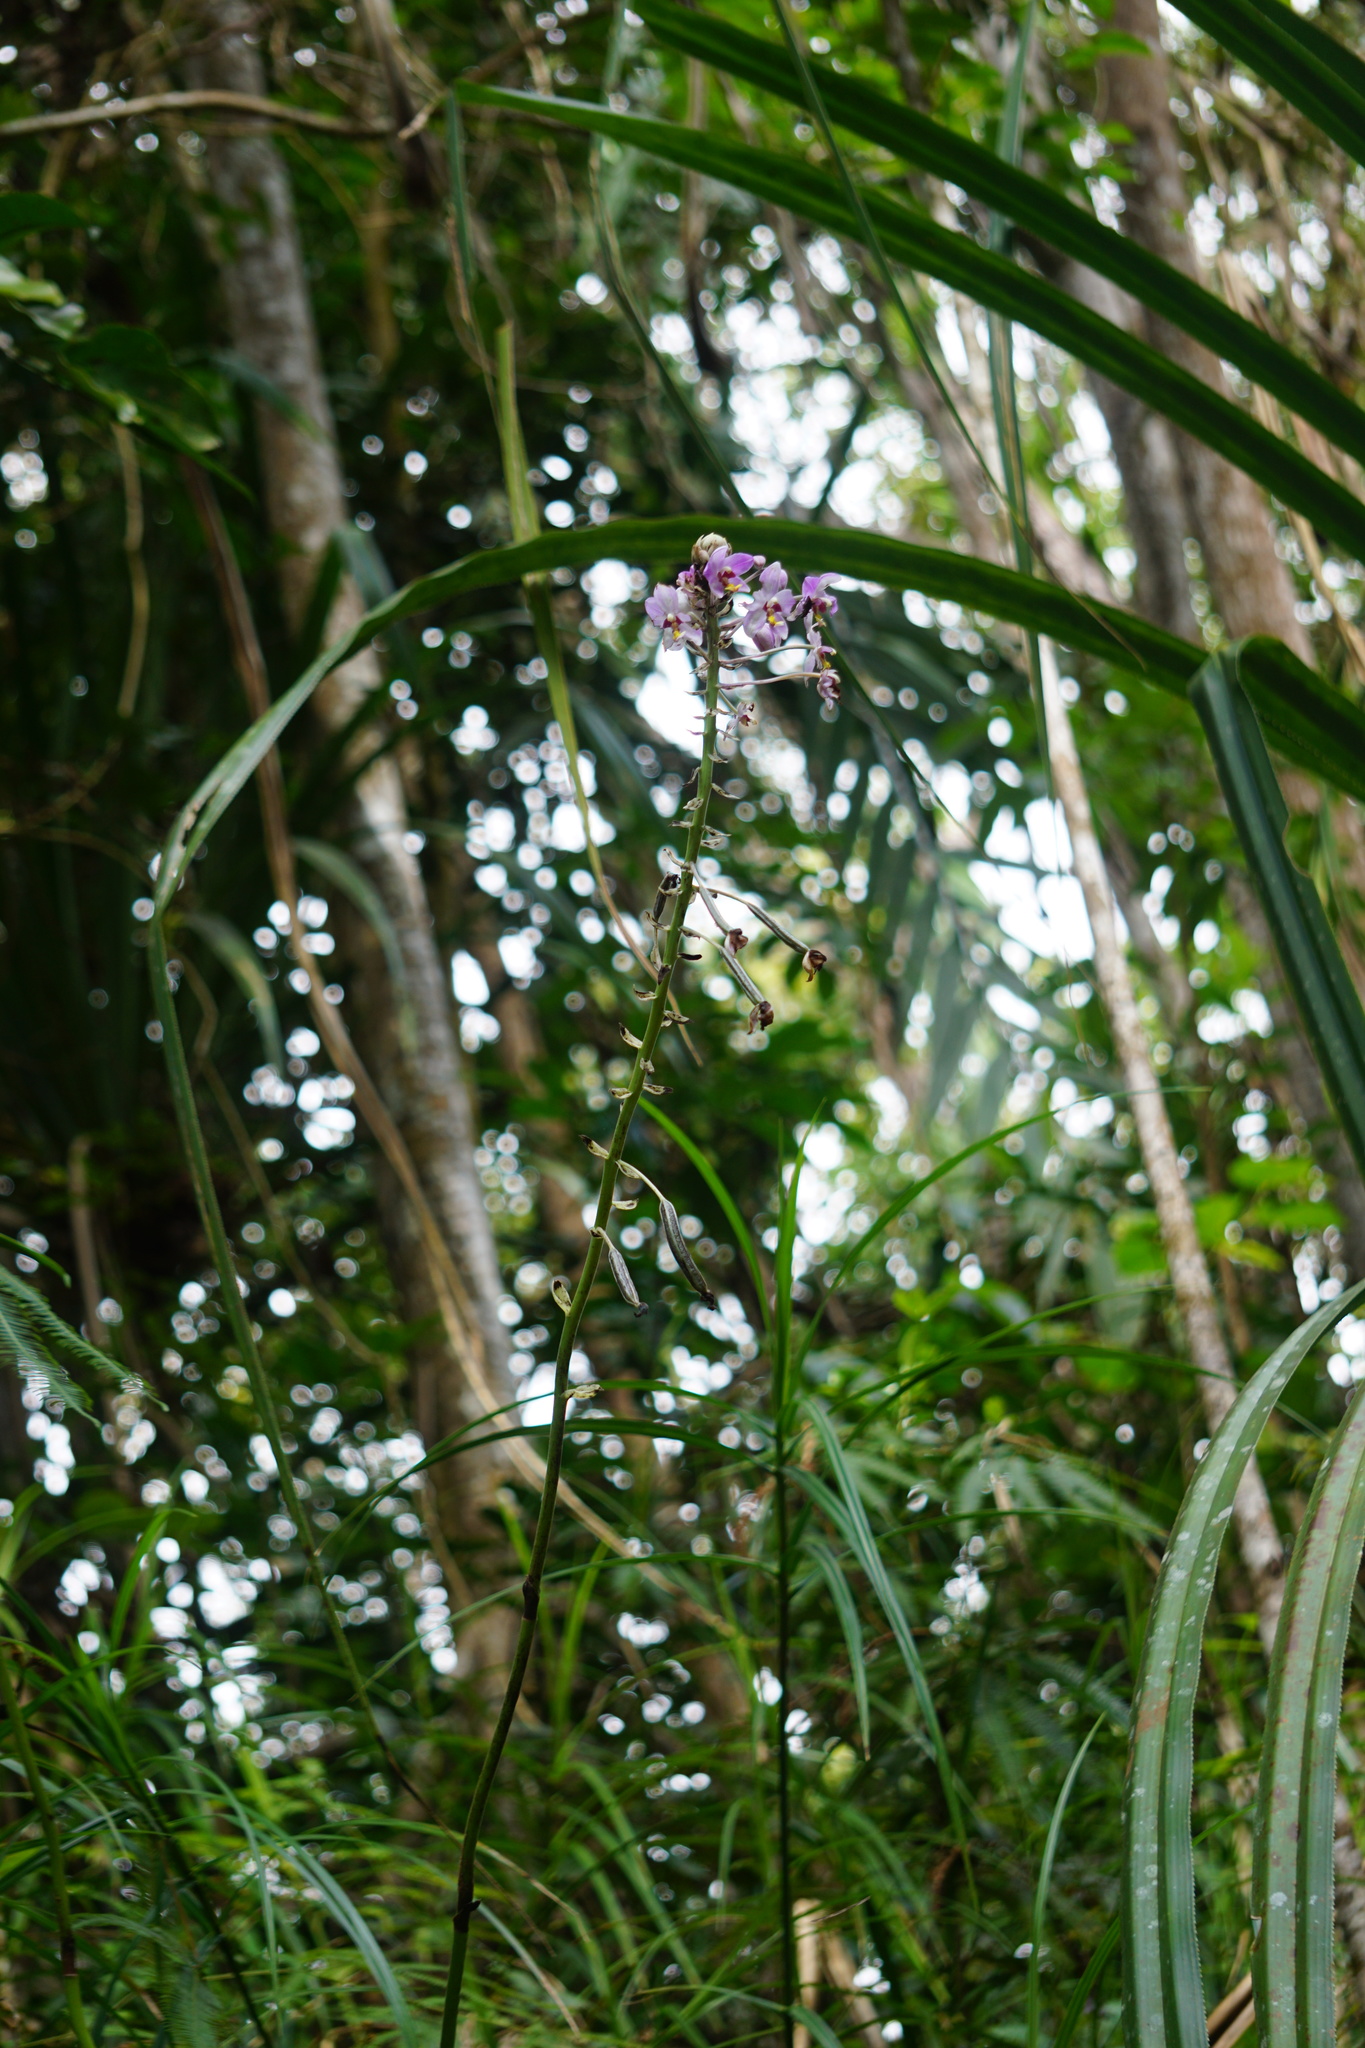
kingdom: Plantae
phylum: Tracheophyta
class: Liliopsida
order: Asparagales
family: Orchidaceae
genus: Spathoglottis
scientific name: Spathoglottis pacifica
